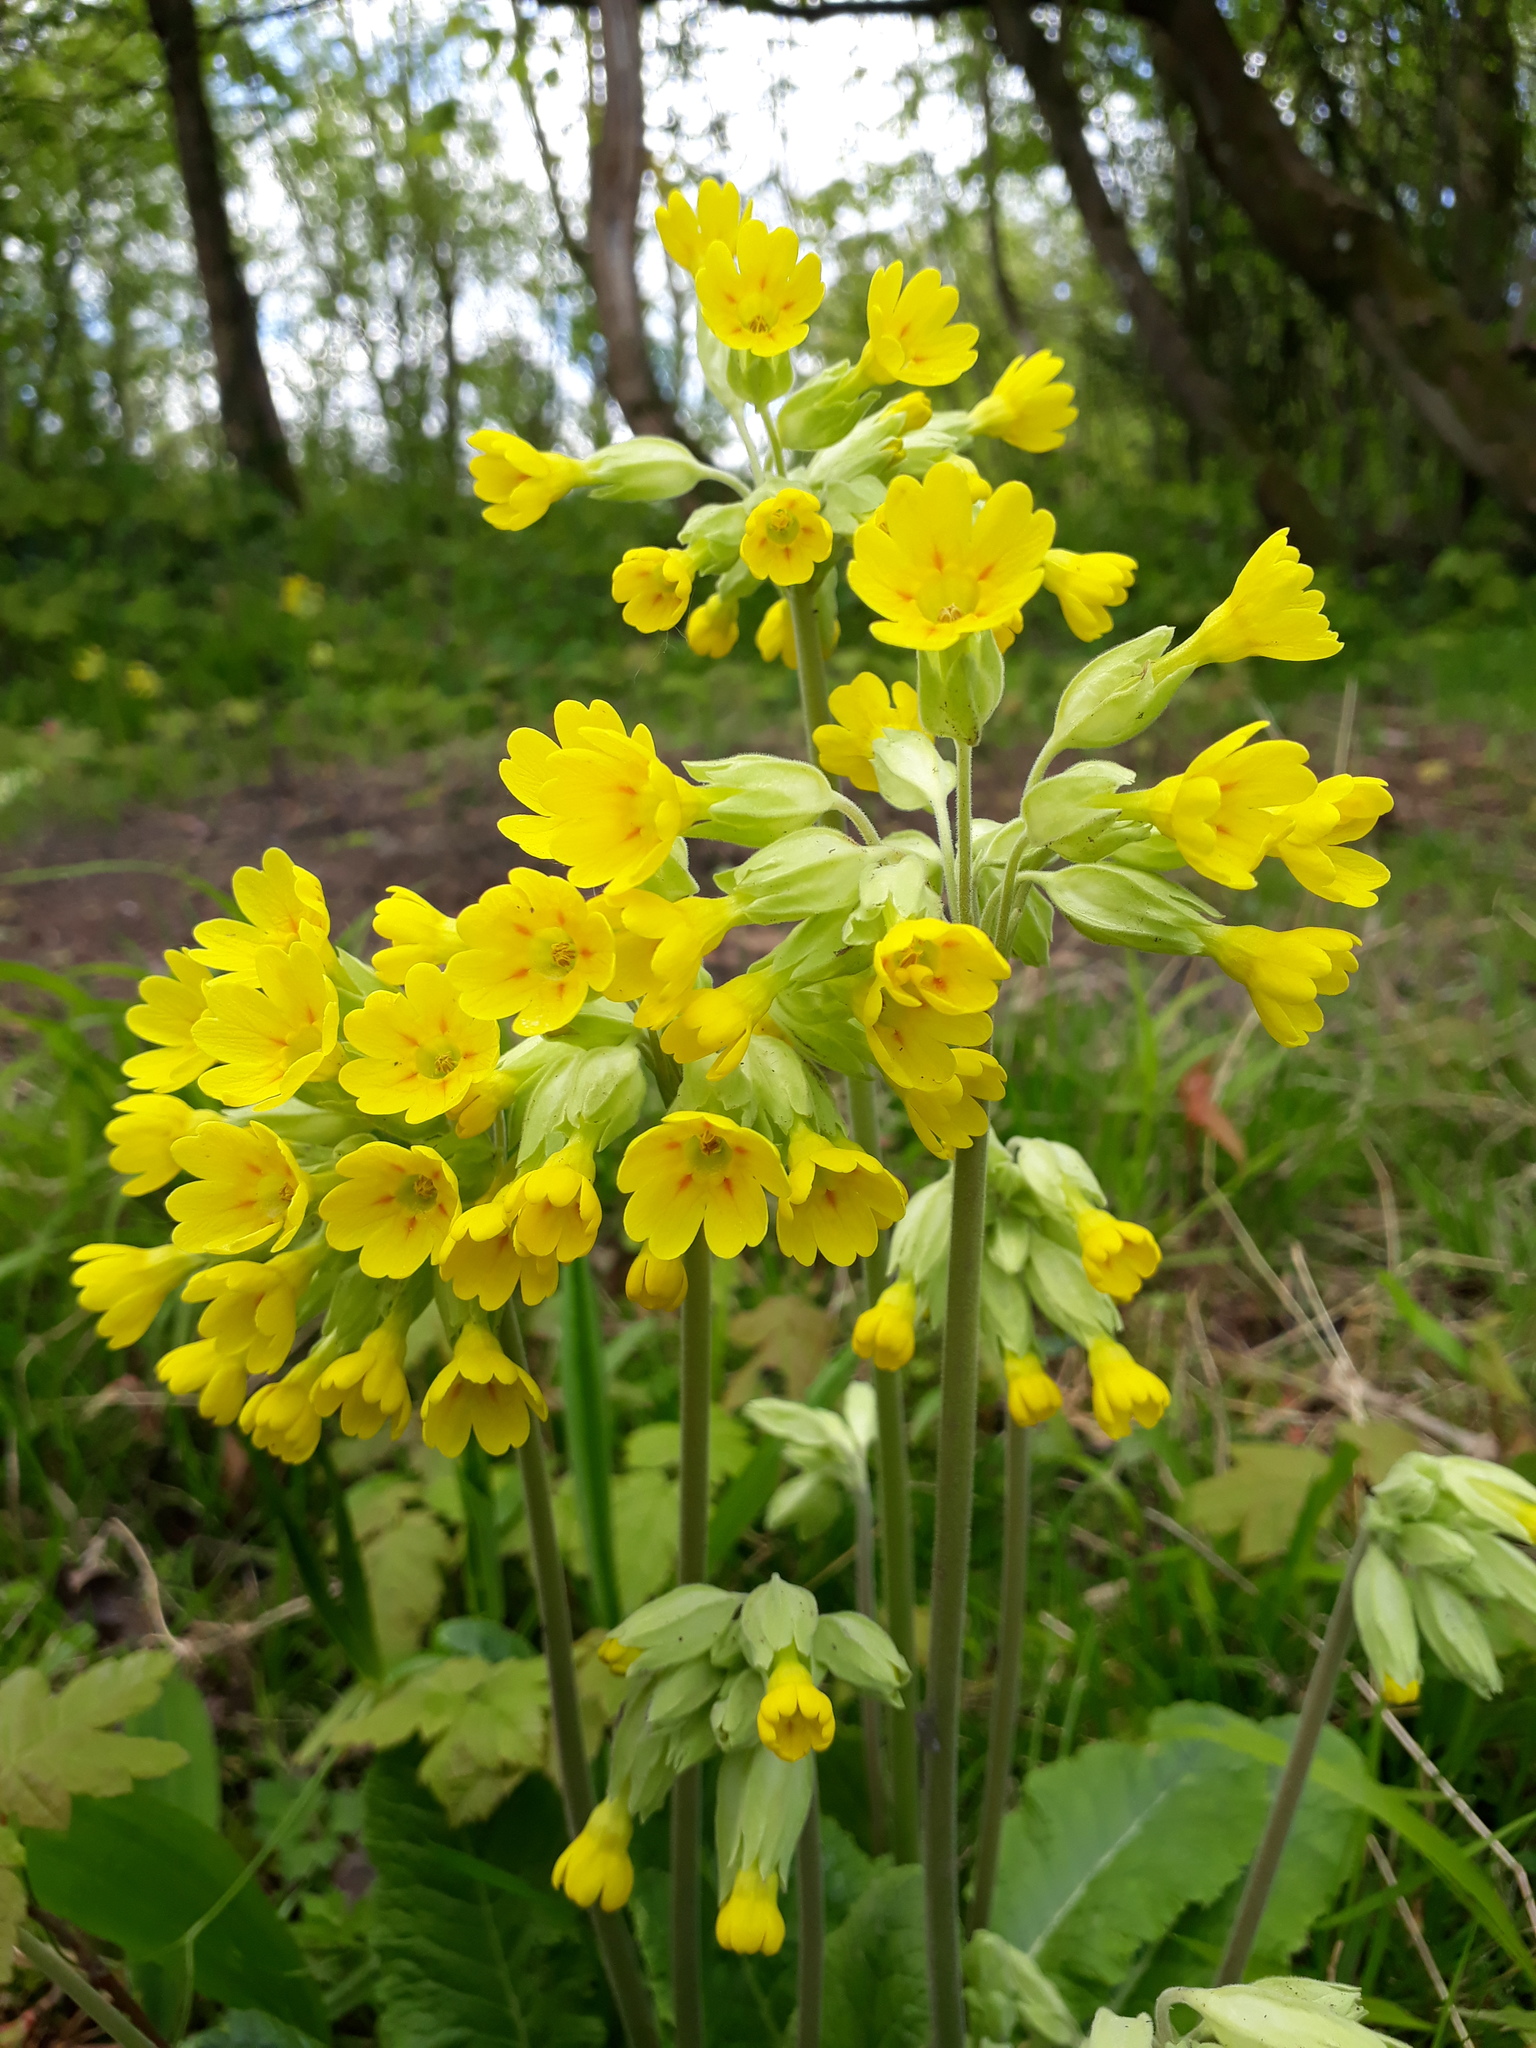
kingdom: Plantae
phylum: Tracheophyta
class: Magnoliopsida
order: Ericales
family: Primulaceae
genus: Primula
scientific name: Primula veris
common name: Cowslip
